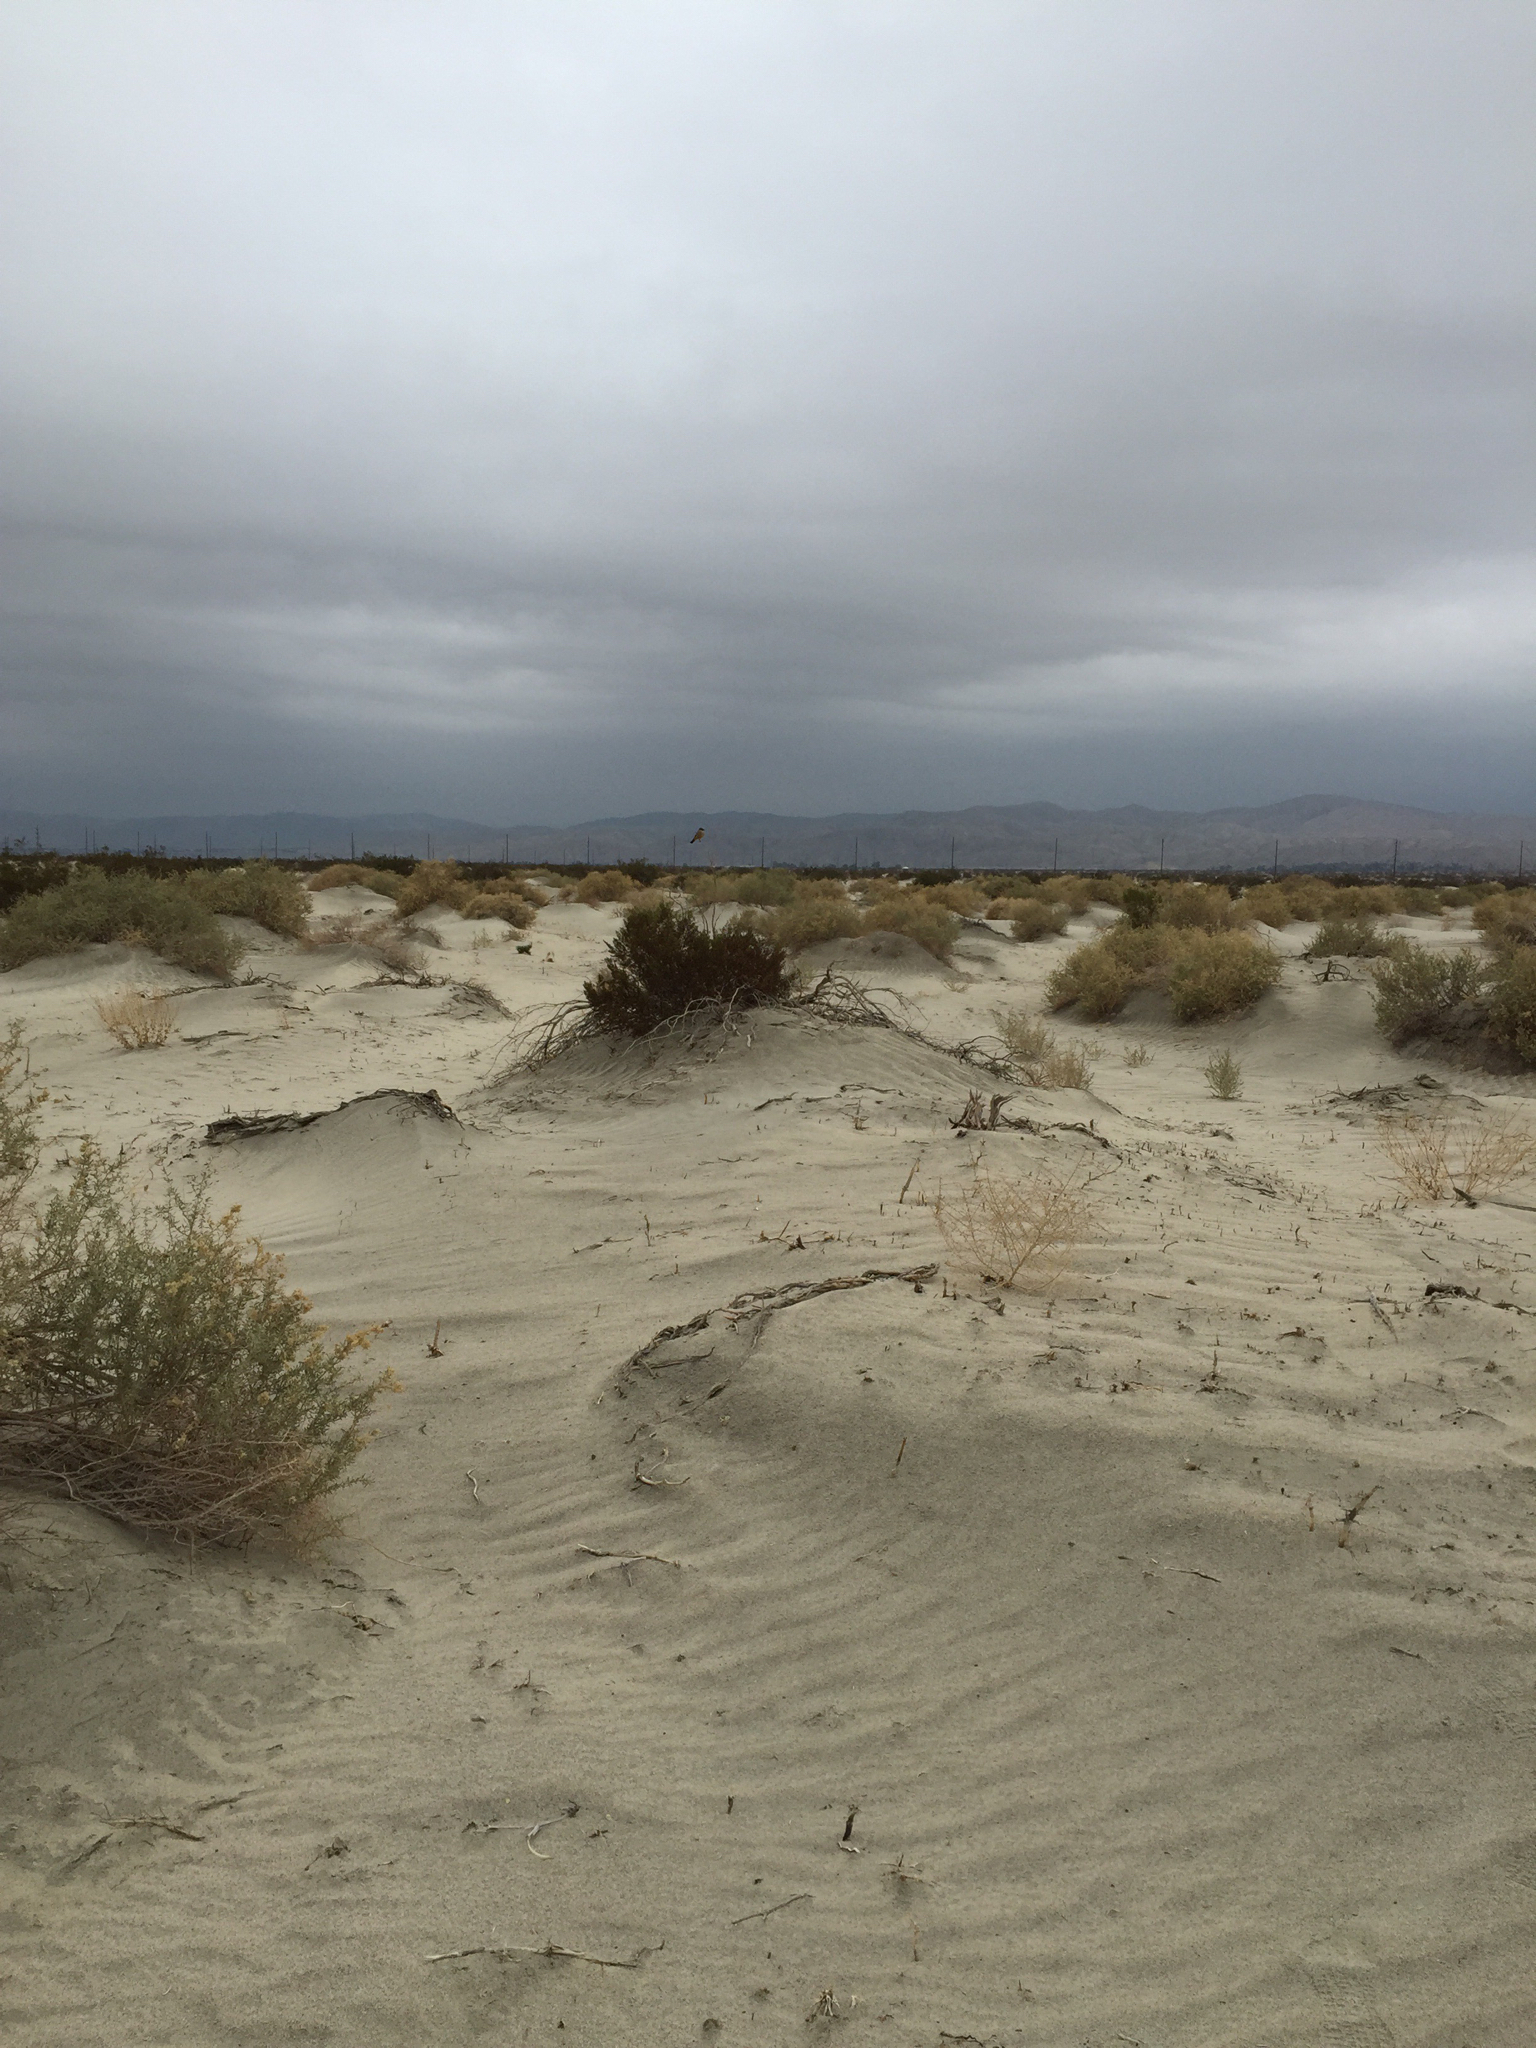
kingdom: Animalia
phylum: Chordata
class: Aves
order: Passeriformes
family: Tyrannidae
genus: Sayornis
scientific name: Sayornis saya
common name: Say's phoebe
